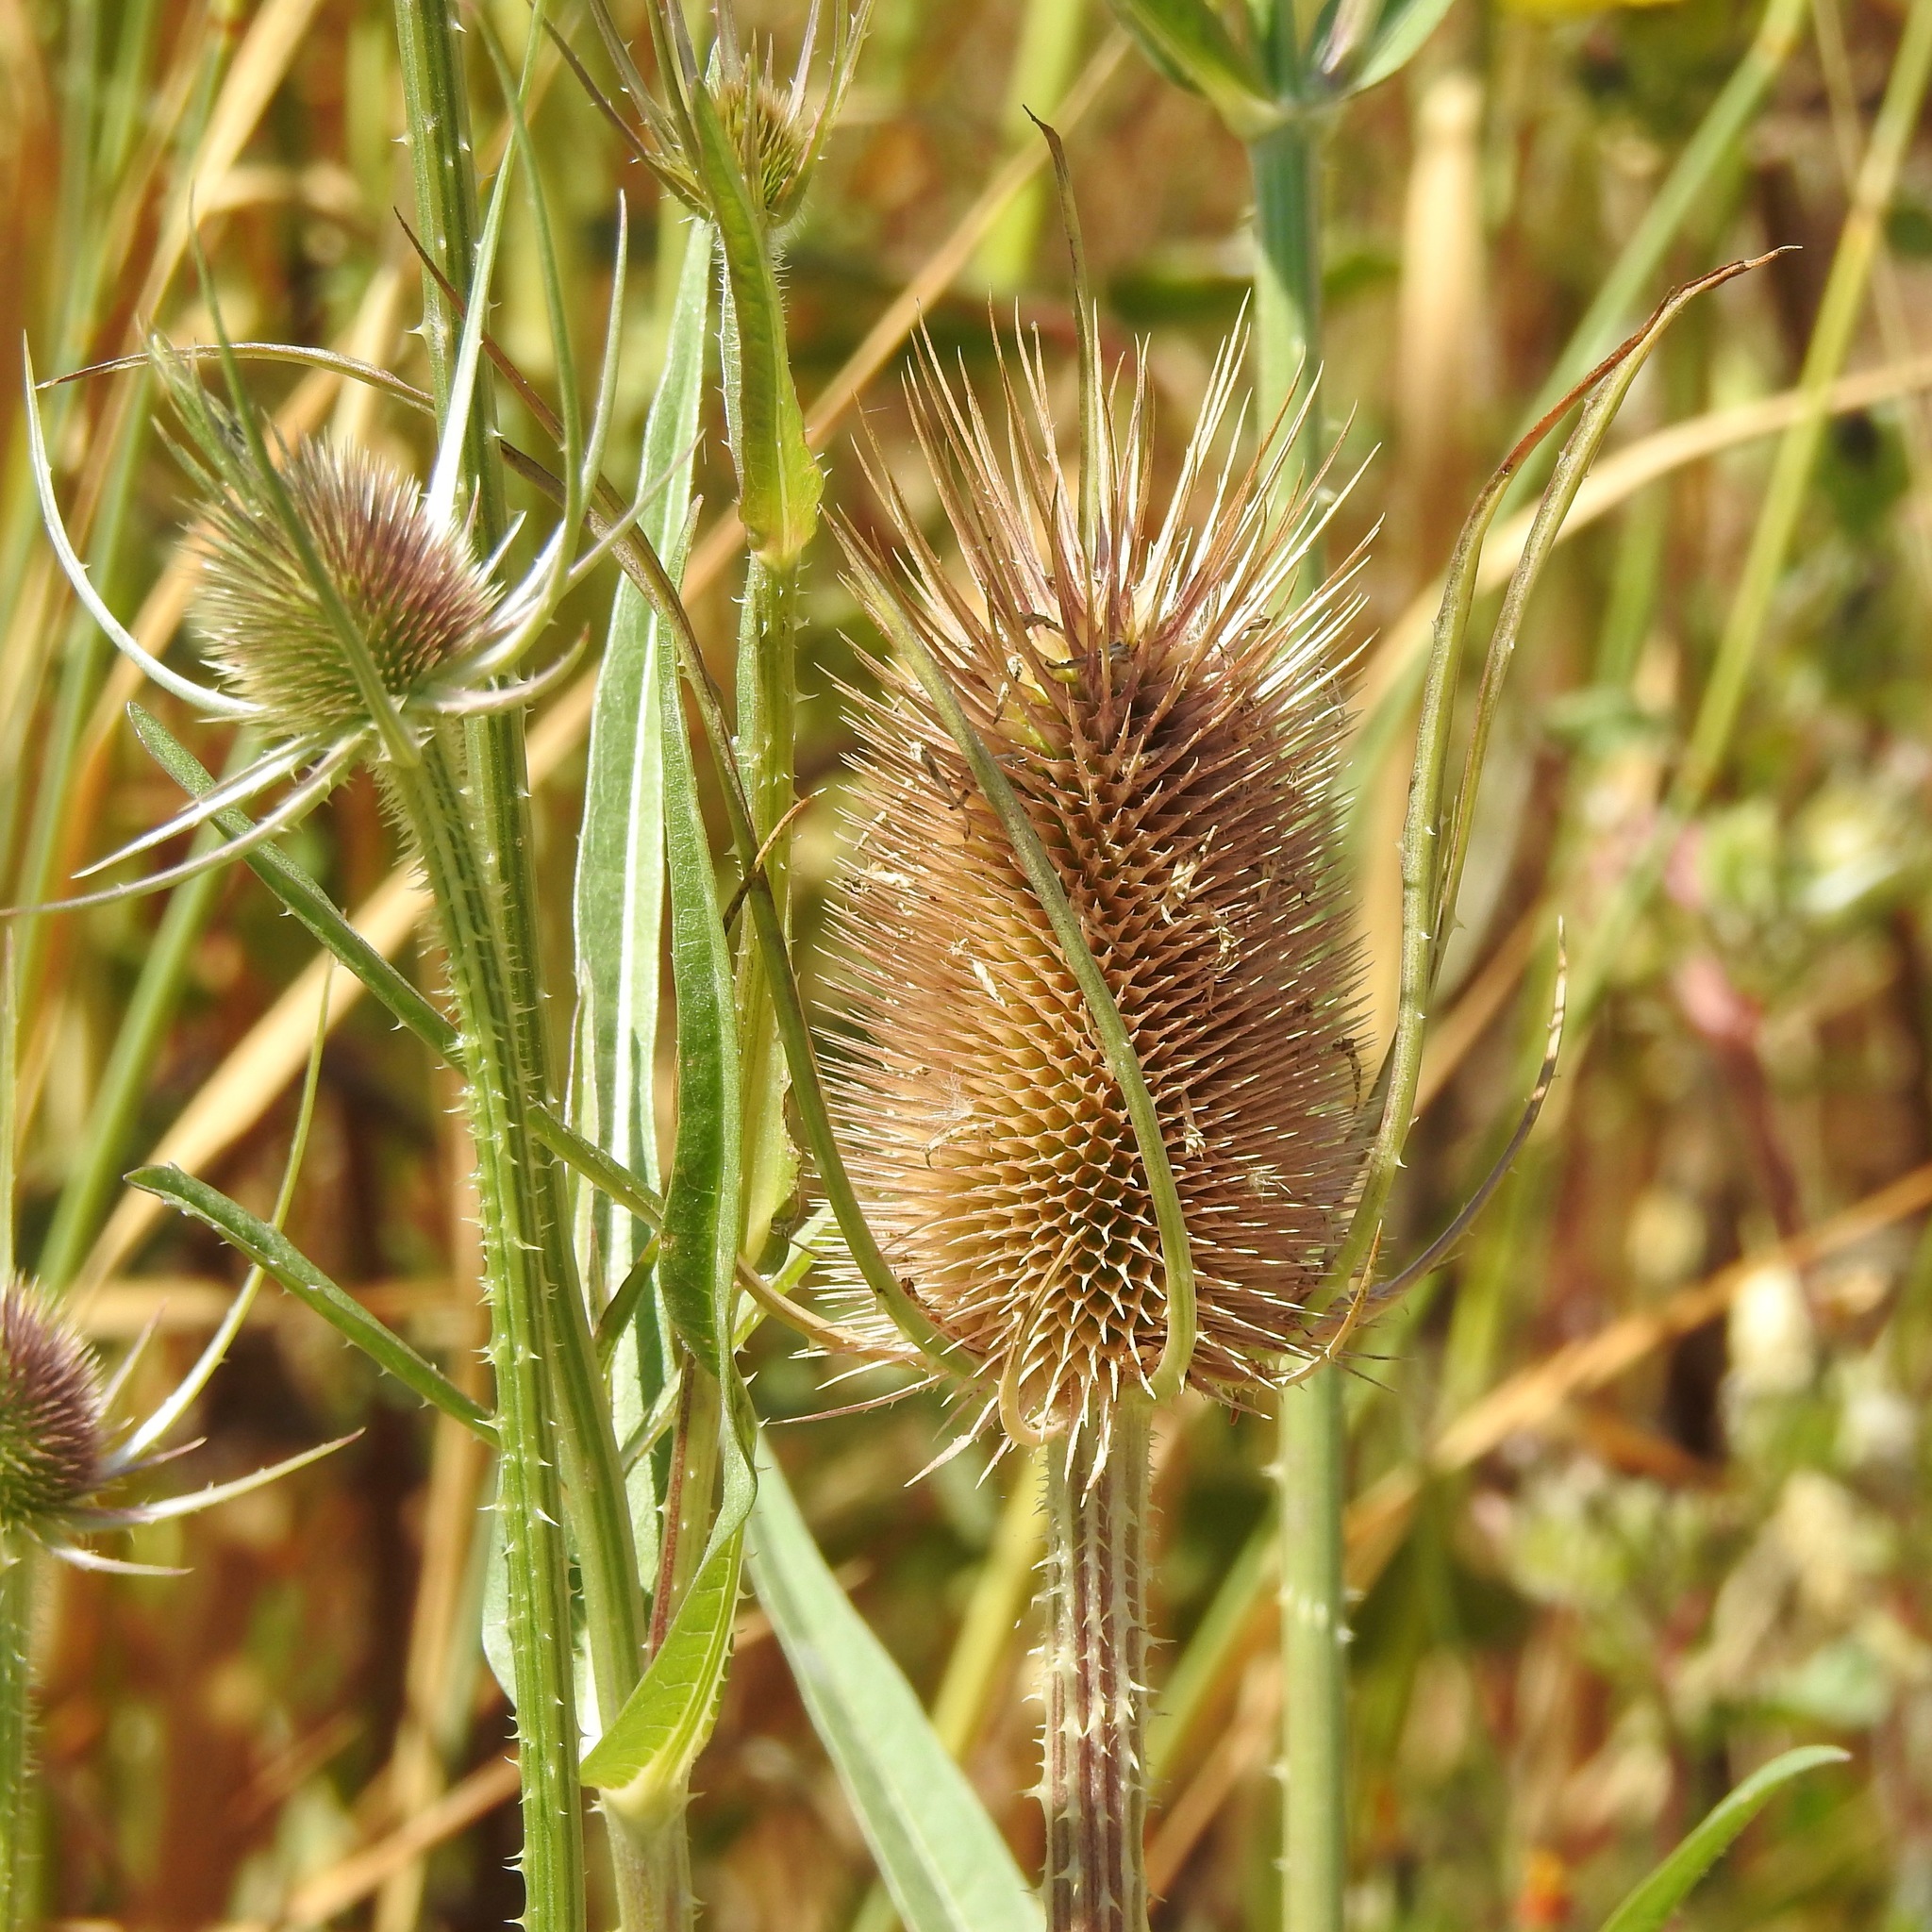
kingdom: Plantae
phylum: Tracheophyta
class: Magnoliopsida
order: Dipsacales
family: Caprifoliaceae
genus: Dipsacus
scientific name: Dipsacus fullonum
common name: Teasel
